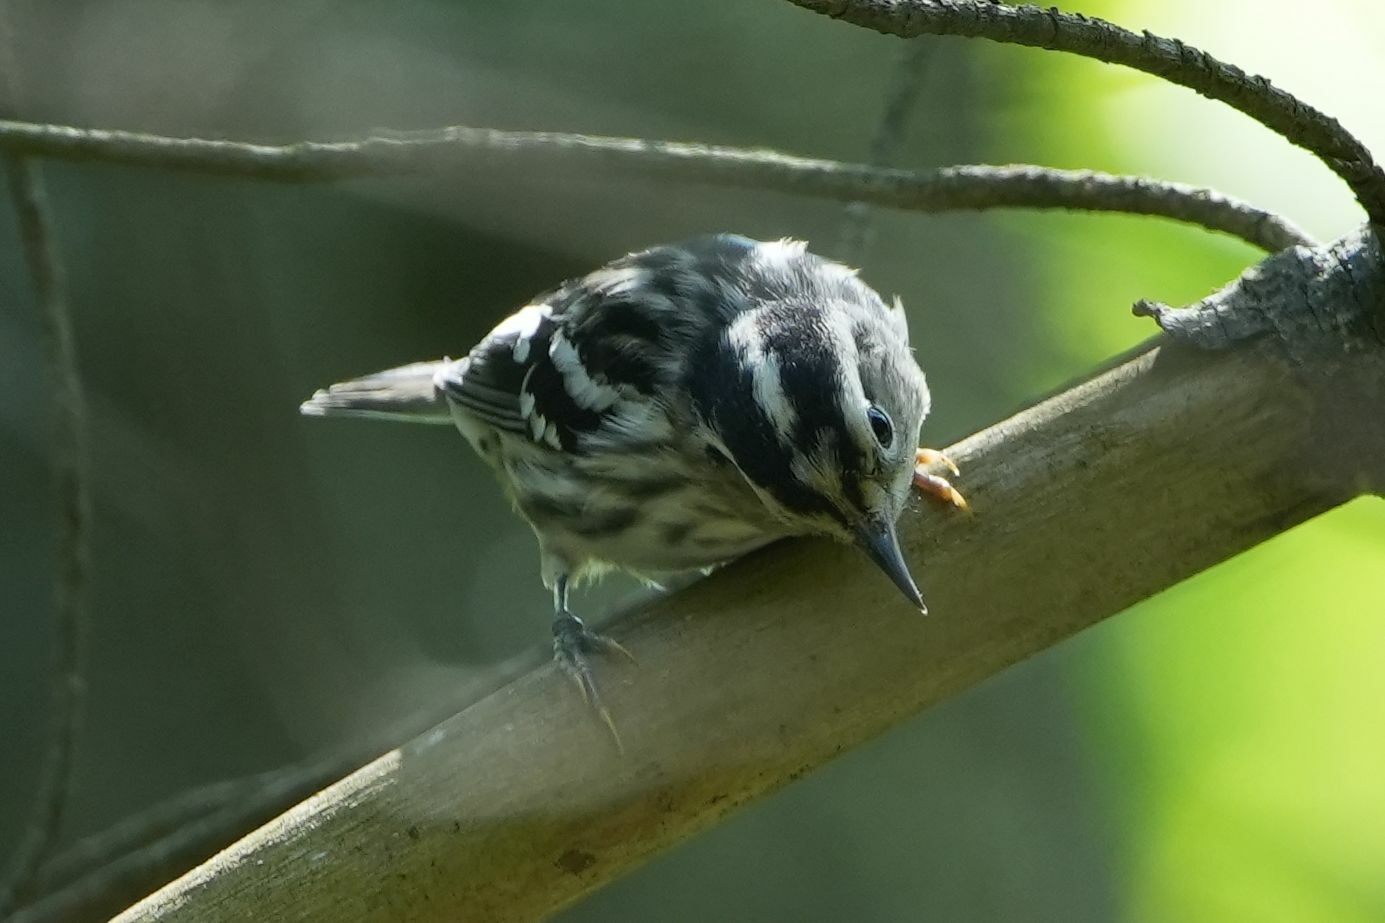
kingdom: Animalia
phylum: Chordata
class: Aves
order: Passeriformes
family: Parulidae
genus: Mniotilta
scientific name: Mniotilta varia
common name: Black-and-white warbler
